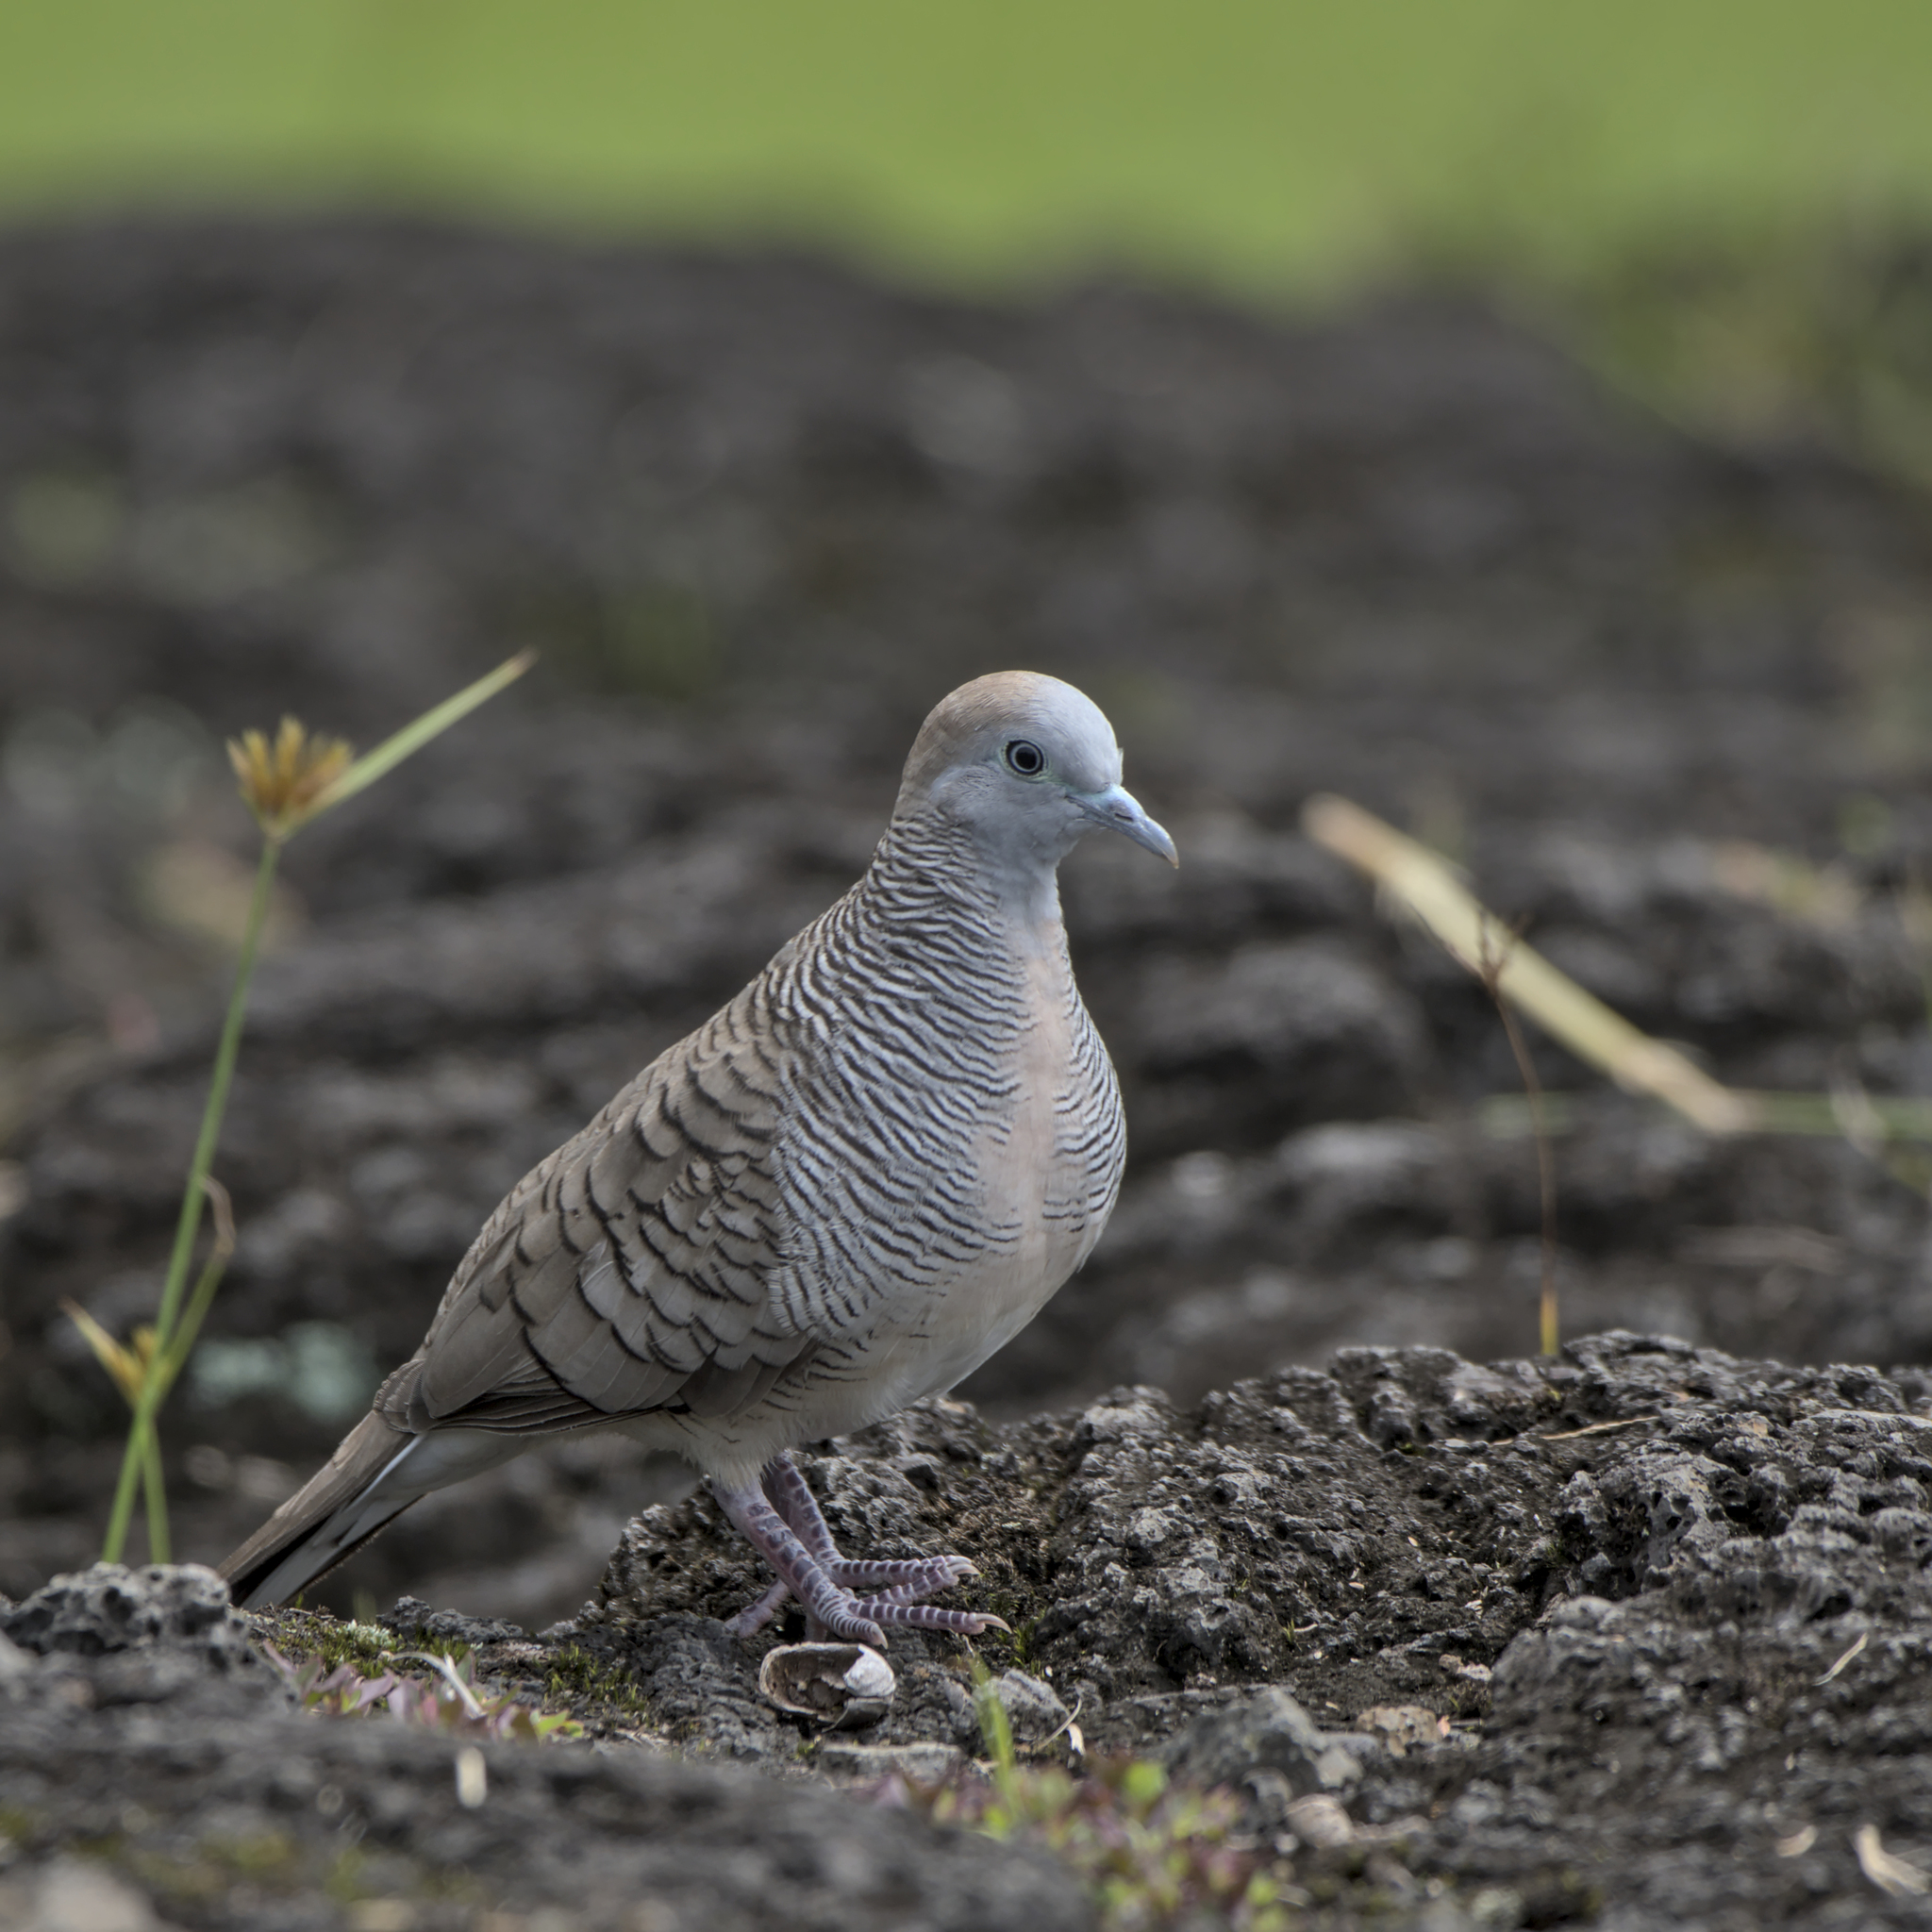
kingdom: Animalia
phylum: Chordata
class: Aves
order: Columbiformes
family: Columbidae
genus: Geopelia
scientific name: Geopelia striata
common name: Zebra dove
